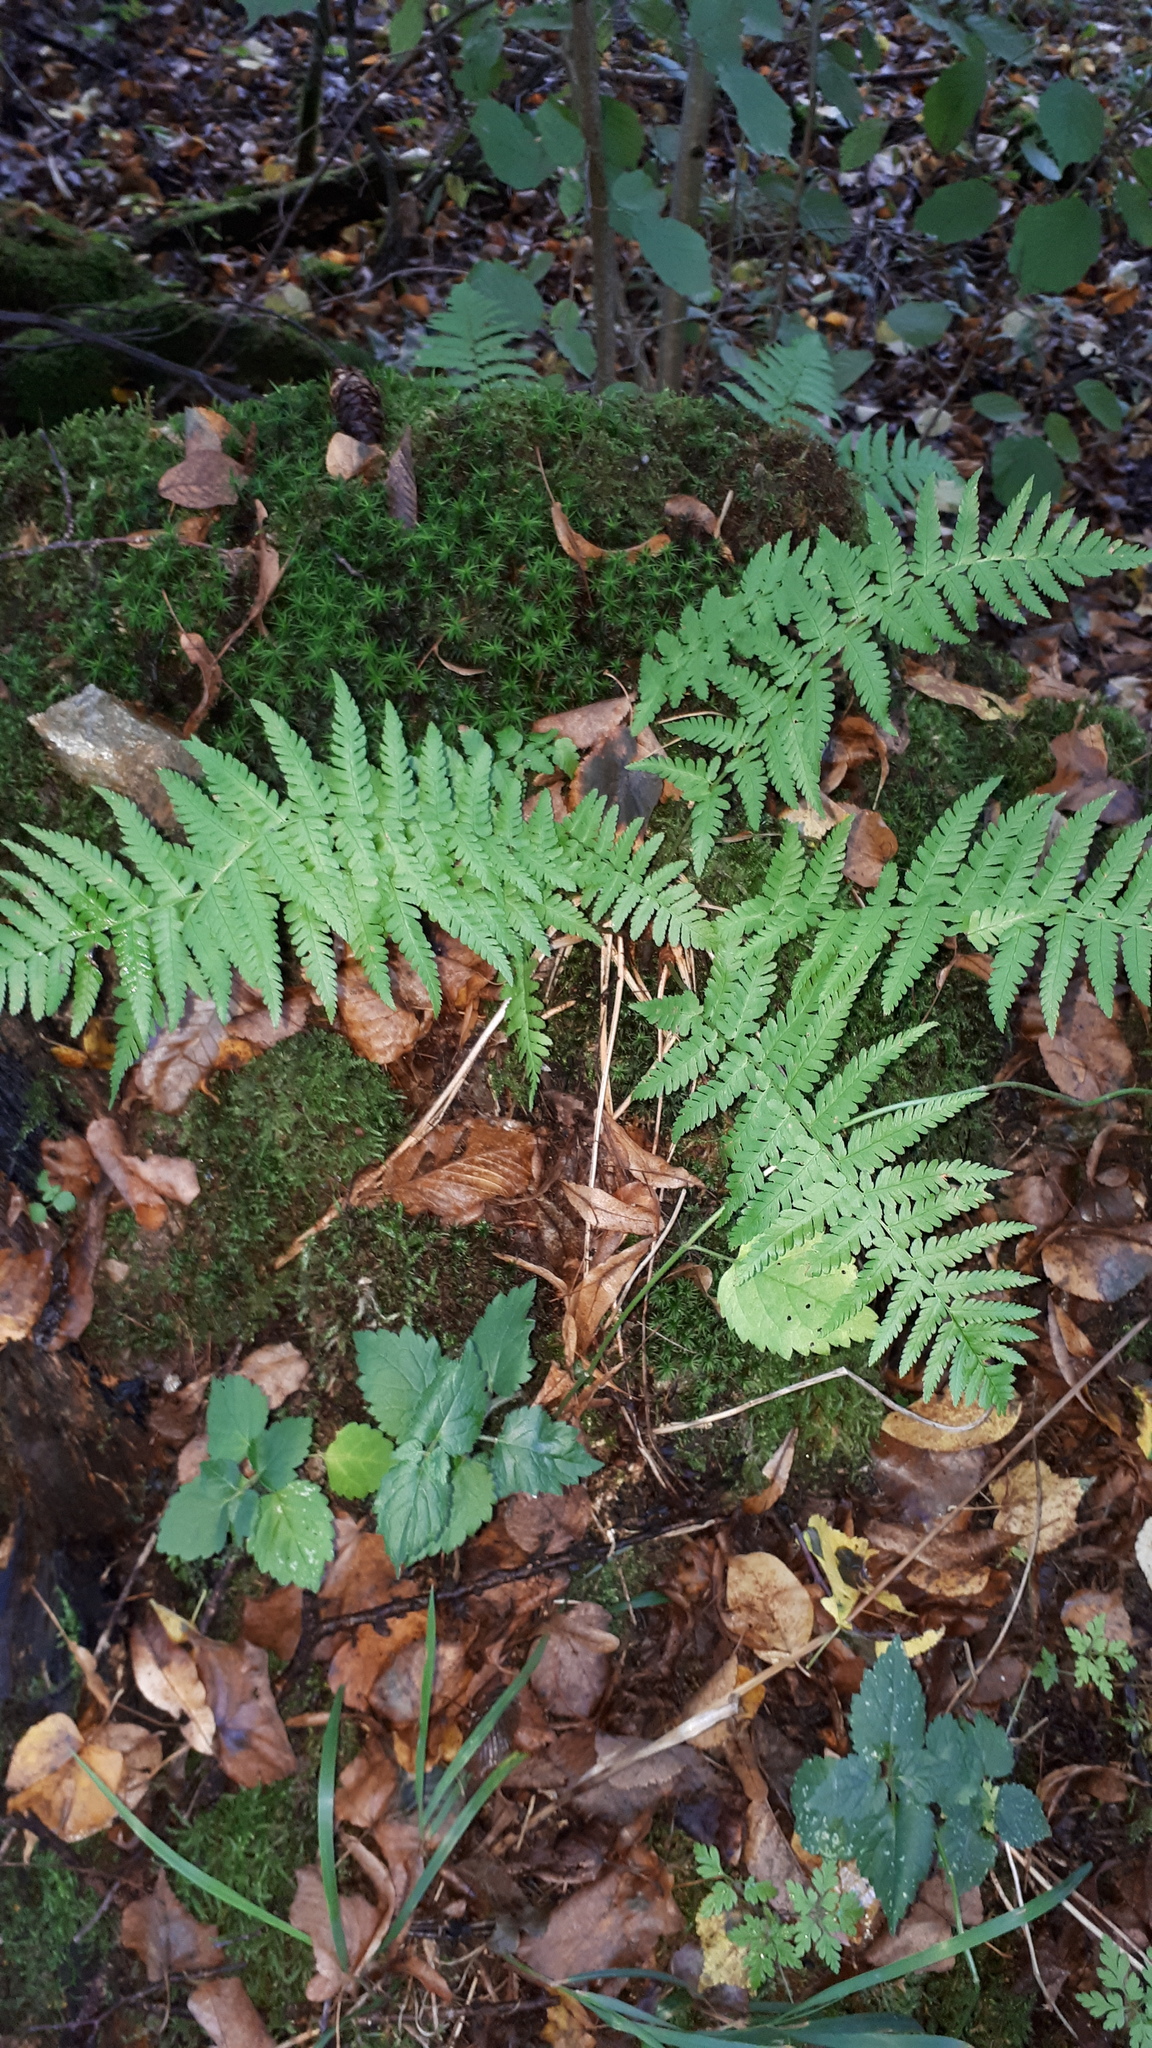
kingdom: Plantae
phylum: Tracheophyta
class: Polypodiopsida
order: Polypodiales
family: Dryopteridaceae
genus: Dryopteris
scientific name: Dryopteris filix-mas
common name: Male fern
